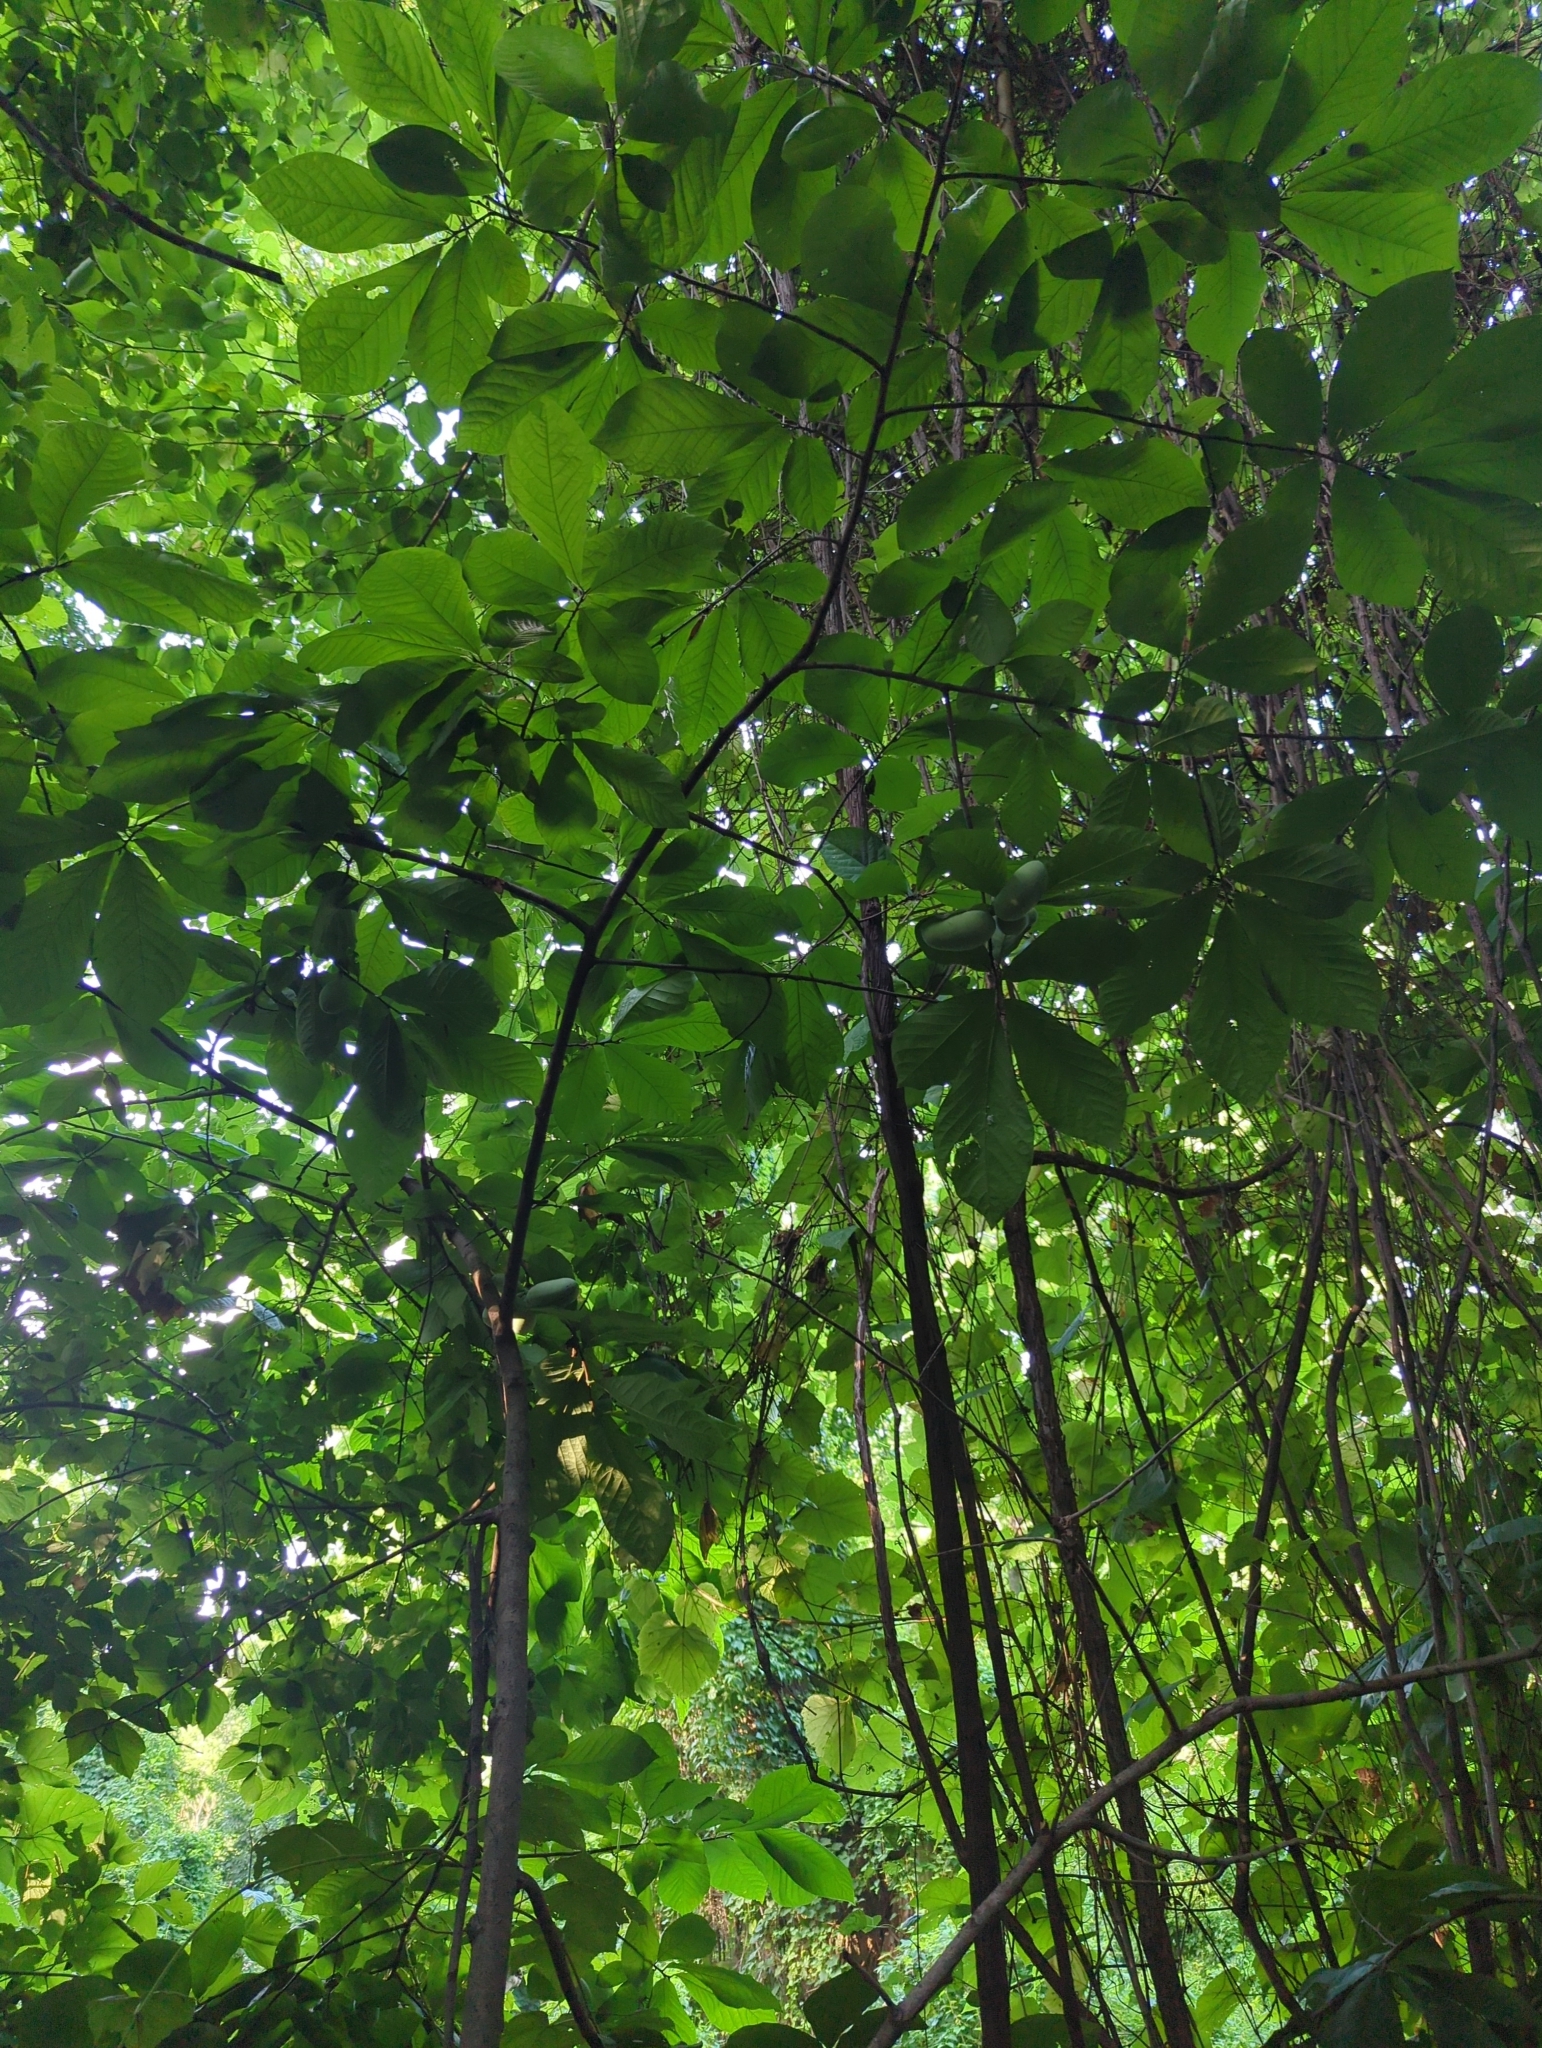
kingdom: Plantae
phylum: Tracheophyta
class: Magnoliopsida
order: Magnoliales
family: Annonaceae
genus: Asimina
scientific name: Asimina triloba
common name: Dog-banana
